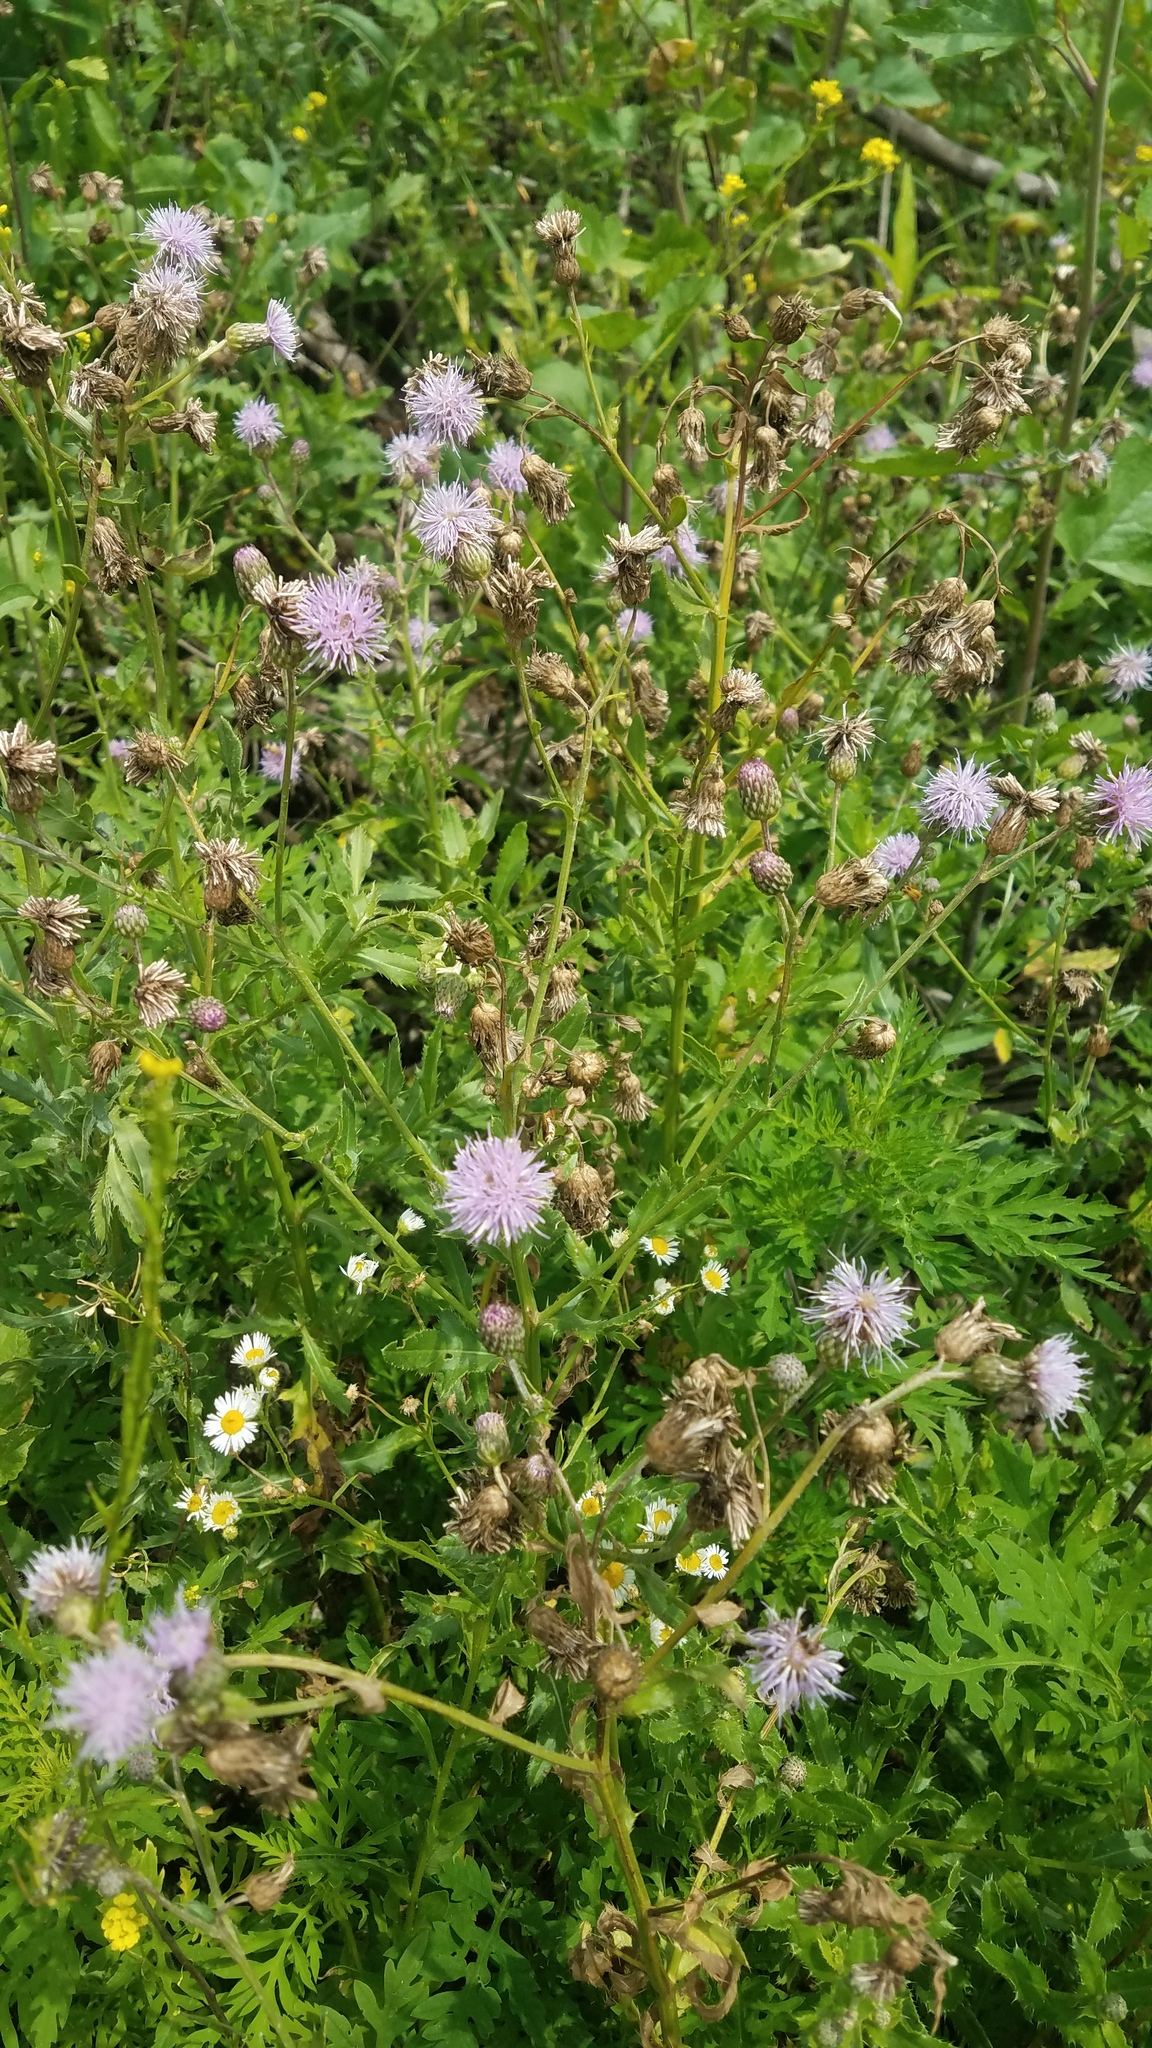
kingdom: Plantae
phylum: Tracheophyta
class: Magnoliopsida
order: Asterales
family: Asteraceae
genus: Cirsium
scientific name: Cirsium arvense
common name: Creeping thistle
